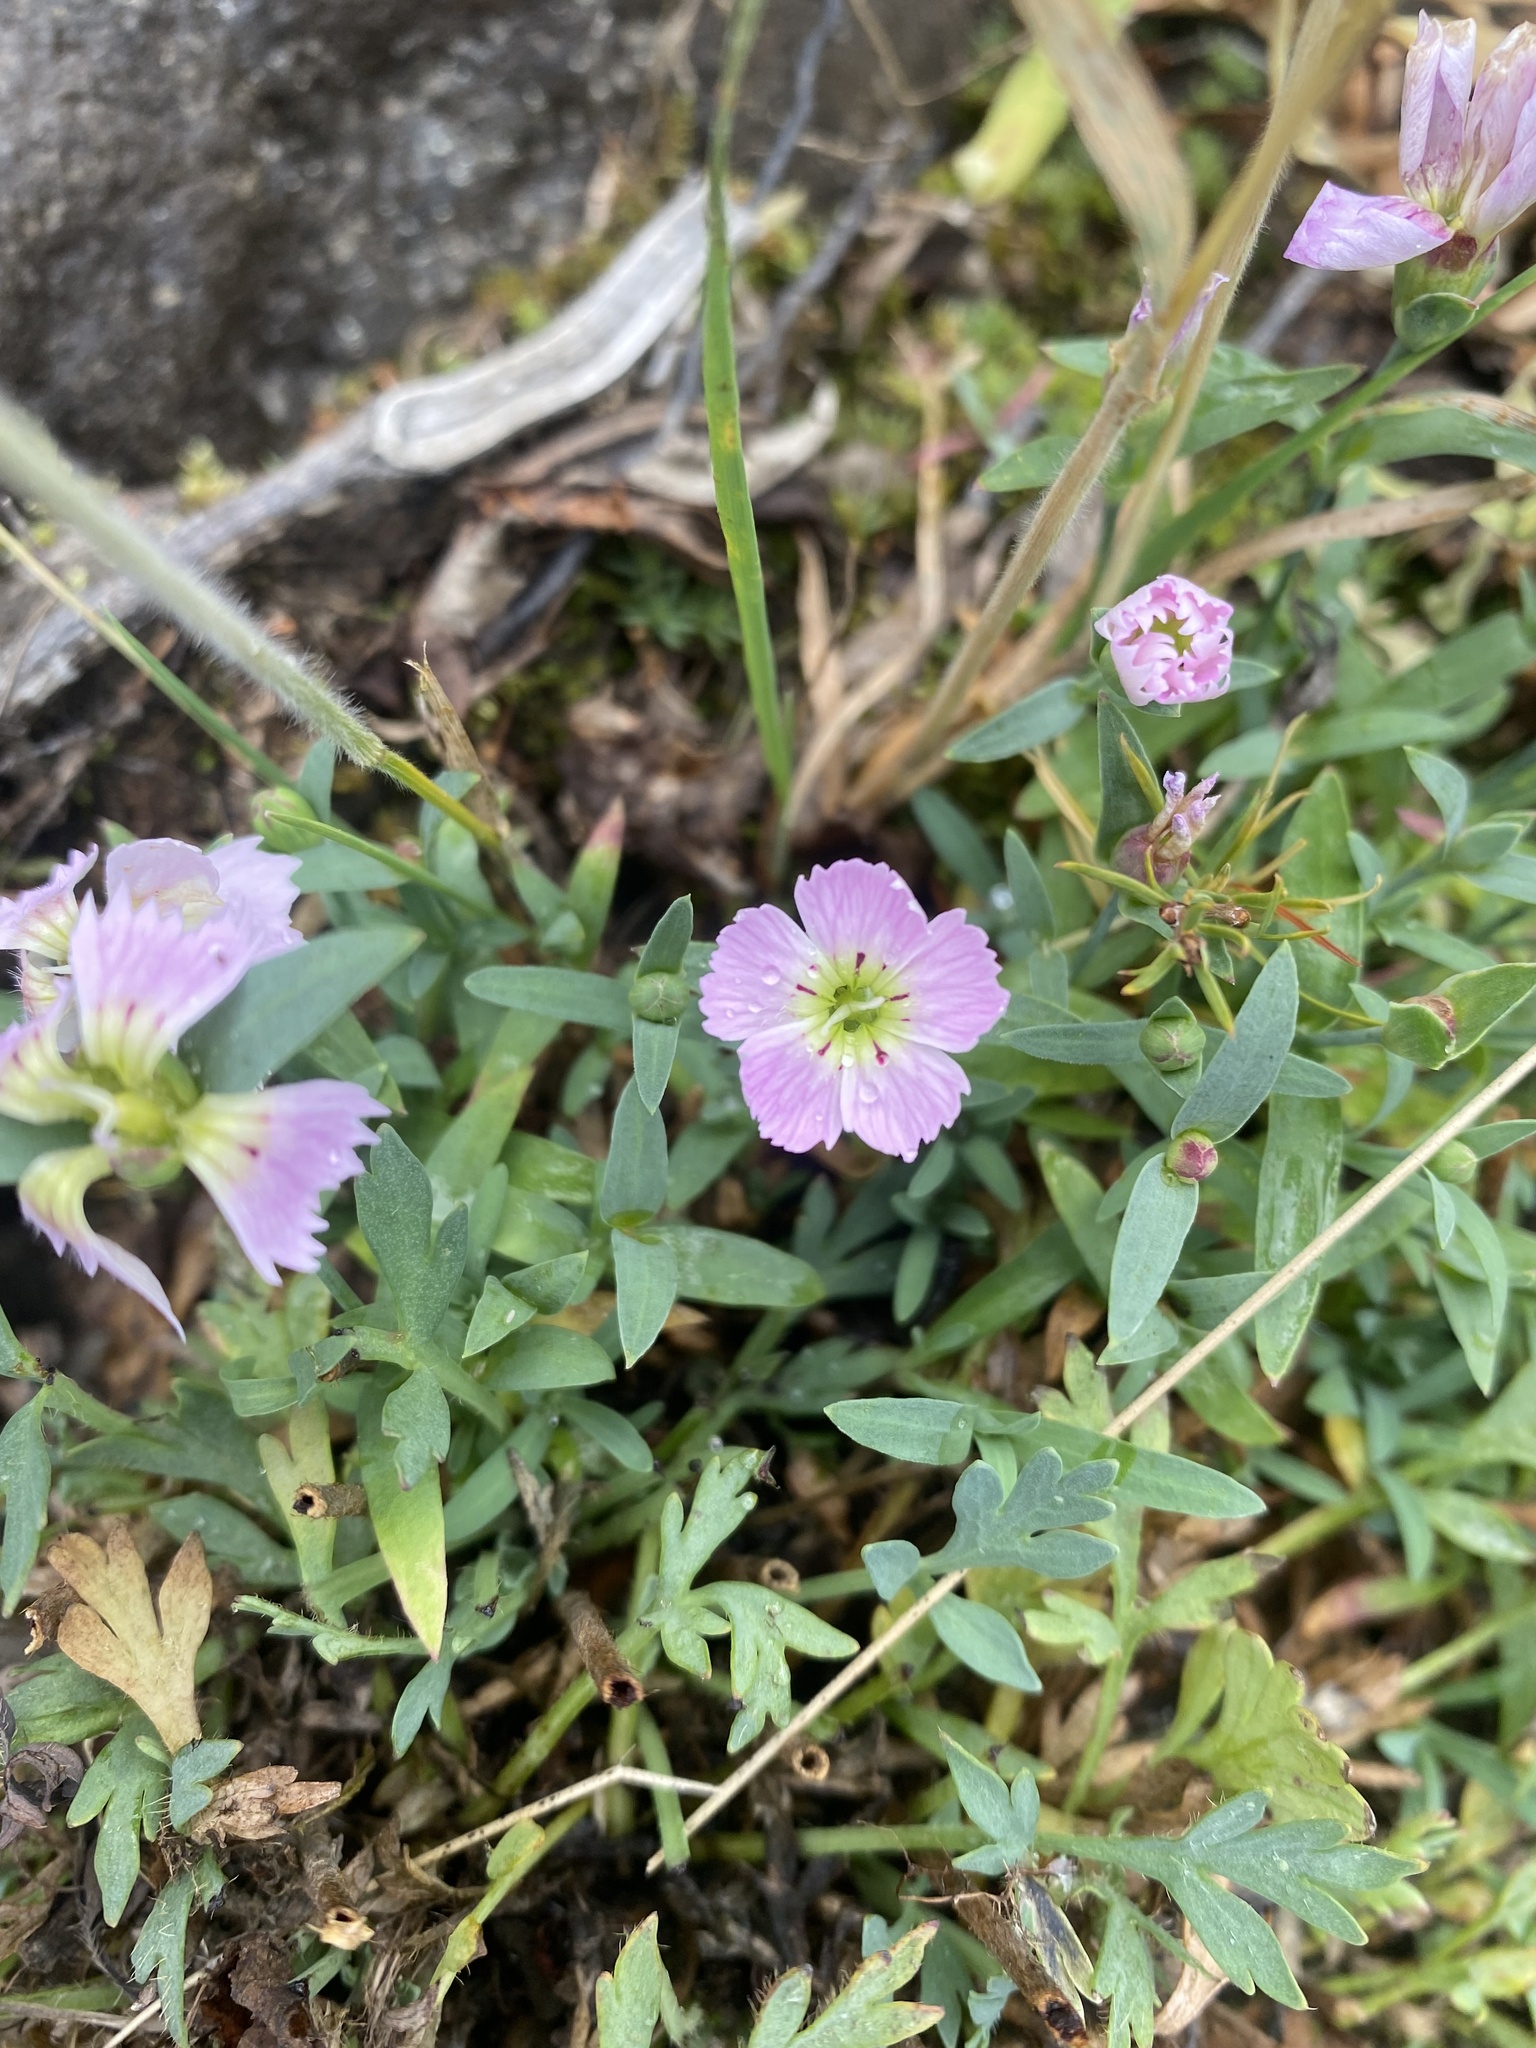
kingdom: Plantae
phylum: Tracheophyta
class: Magnoliopsida
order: Caryophyllales
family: Caryophyllaceae
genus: Dianthus
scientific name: Dianthus repens
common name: Northern pink
